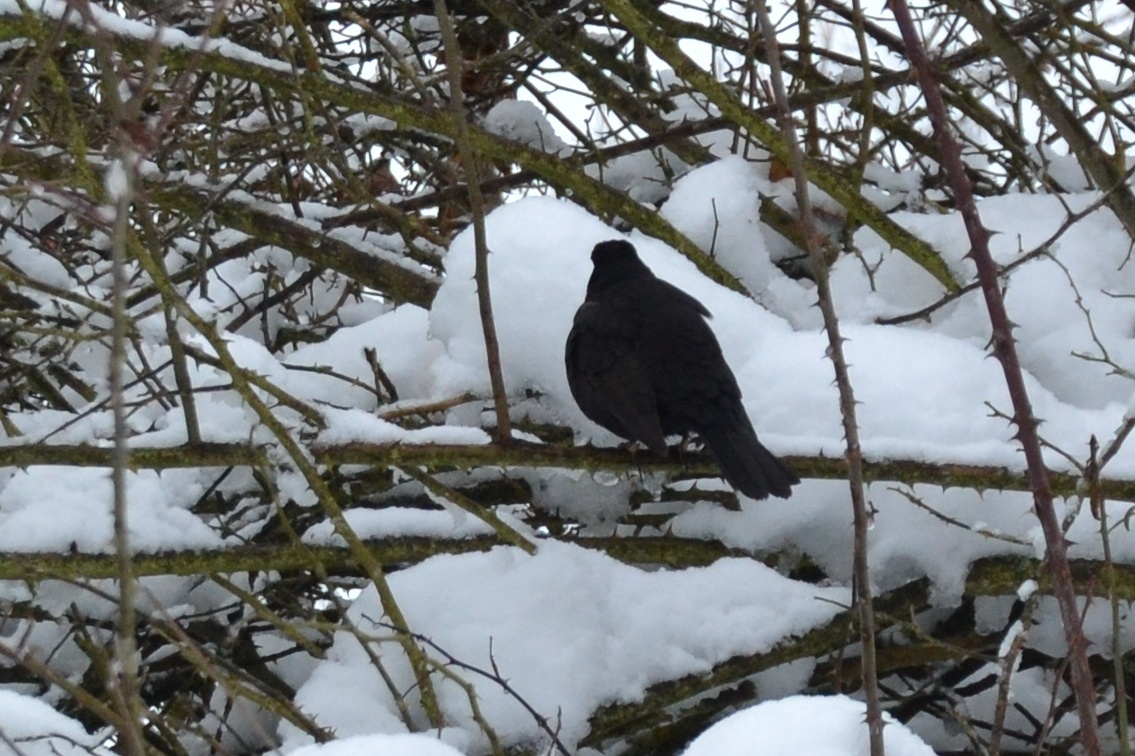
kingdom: Animalia
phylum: Chordata
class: Aves
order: Passeriformes
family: Turdidae
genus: Turdus
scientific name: Turdus merula
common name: Common blackbird
